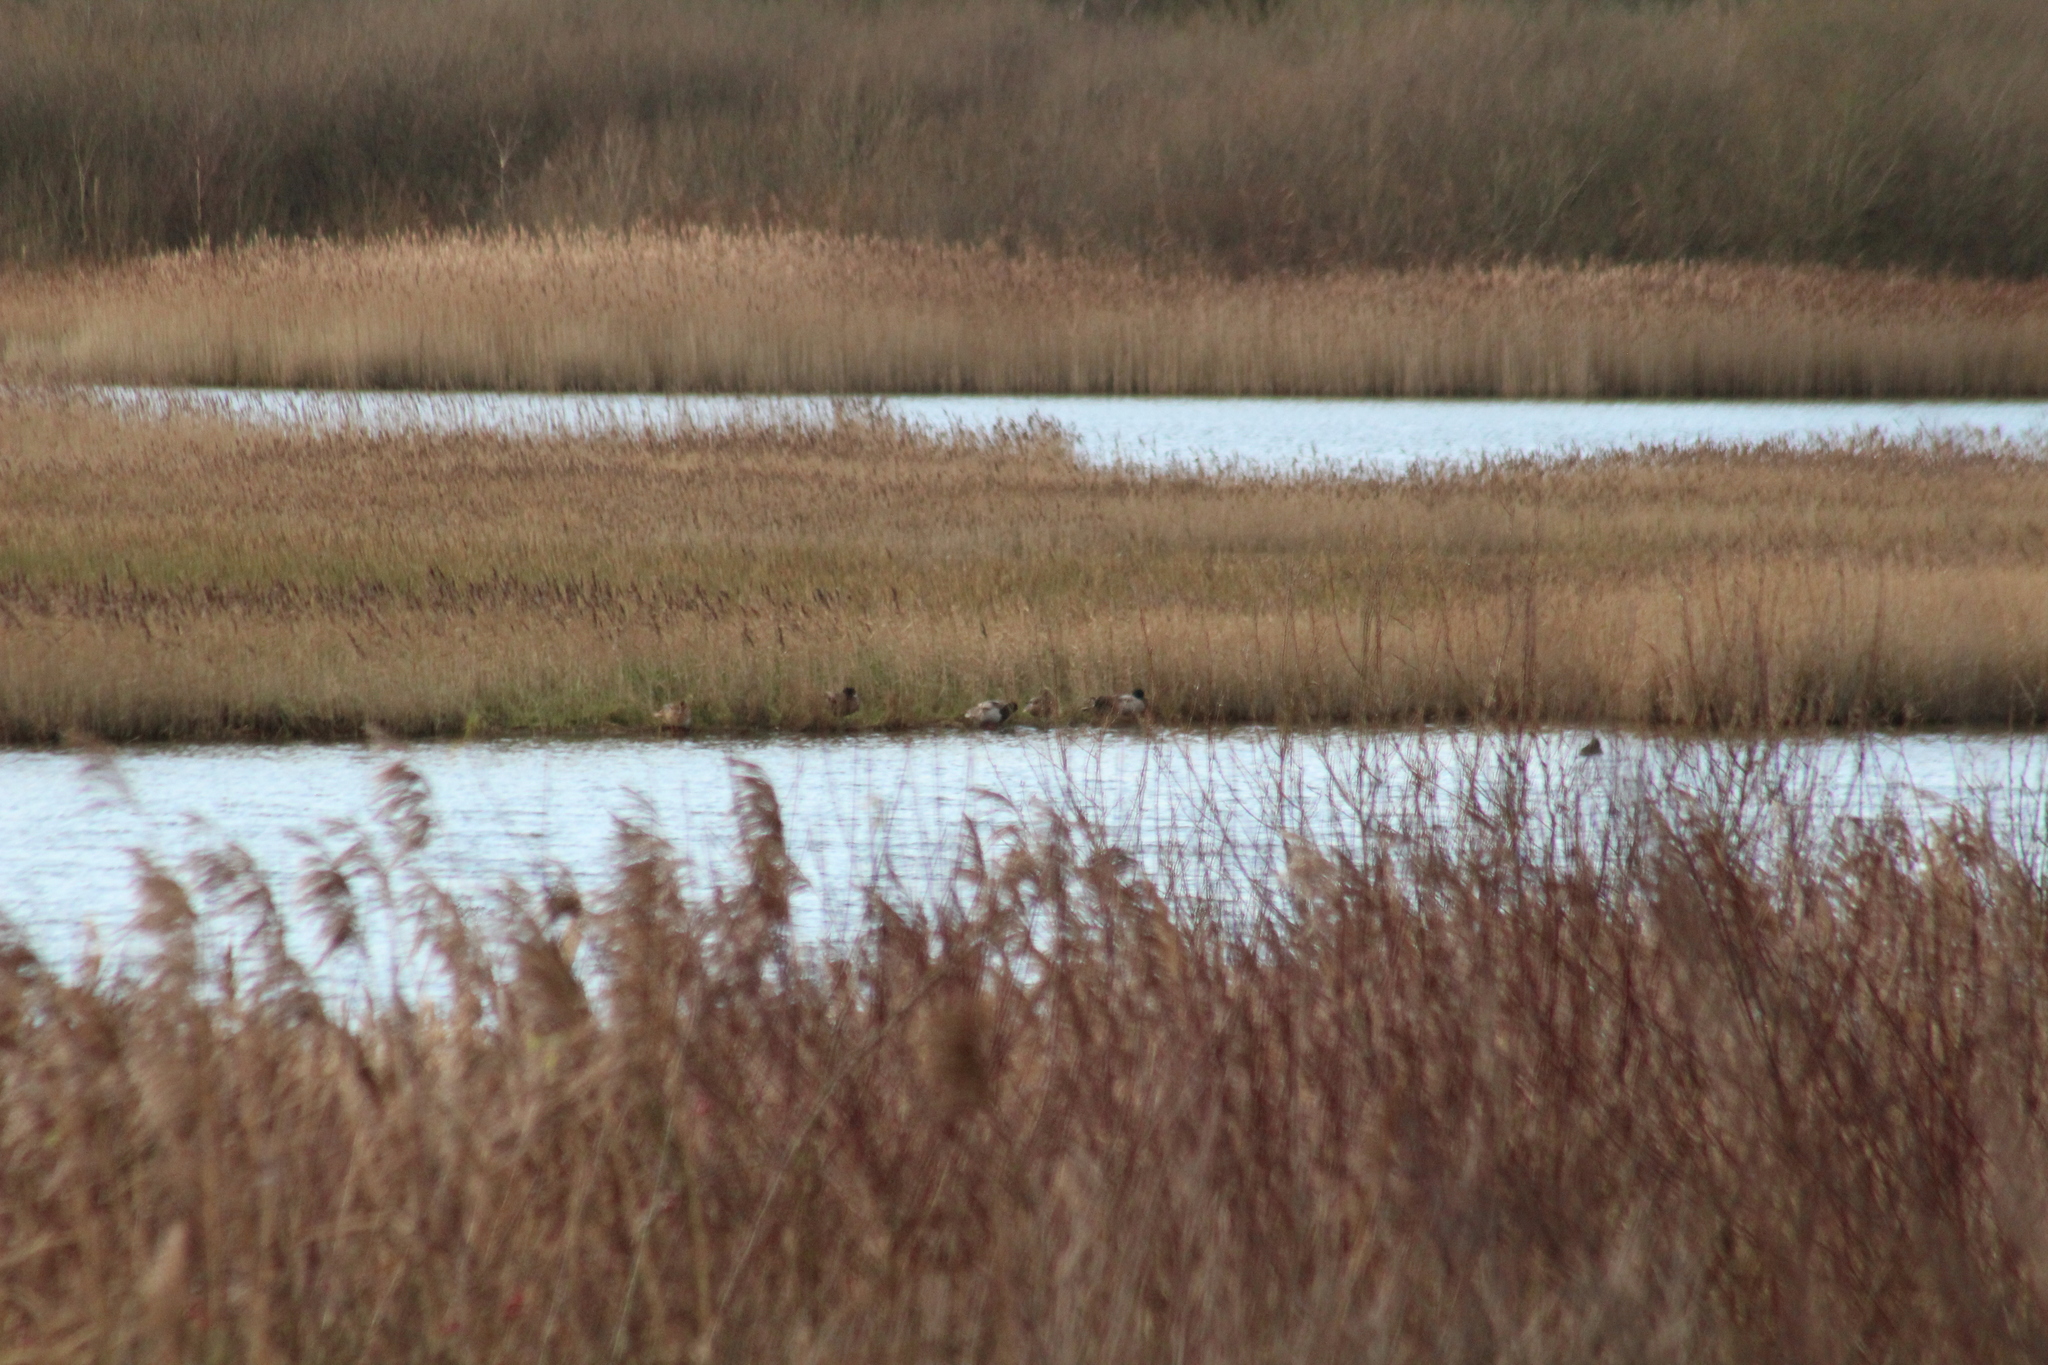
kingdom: Animalia
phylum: Chordata
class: Aves
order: Anseriformes
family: Anatidae
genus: Anas
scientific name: Anas platyrhynchos
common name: Mallard
